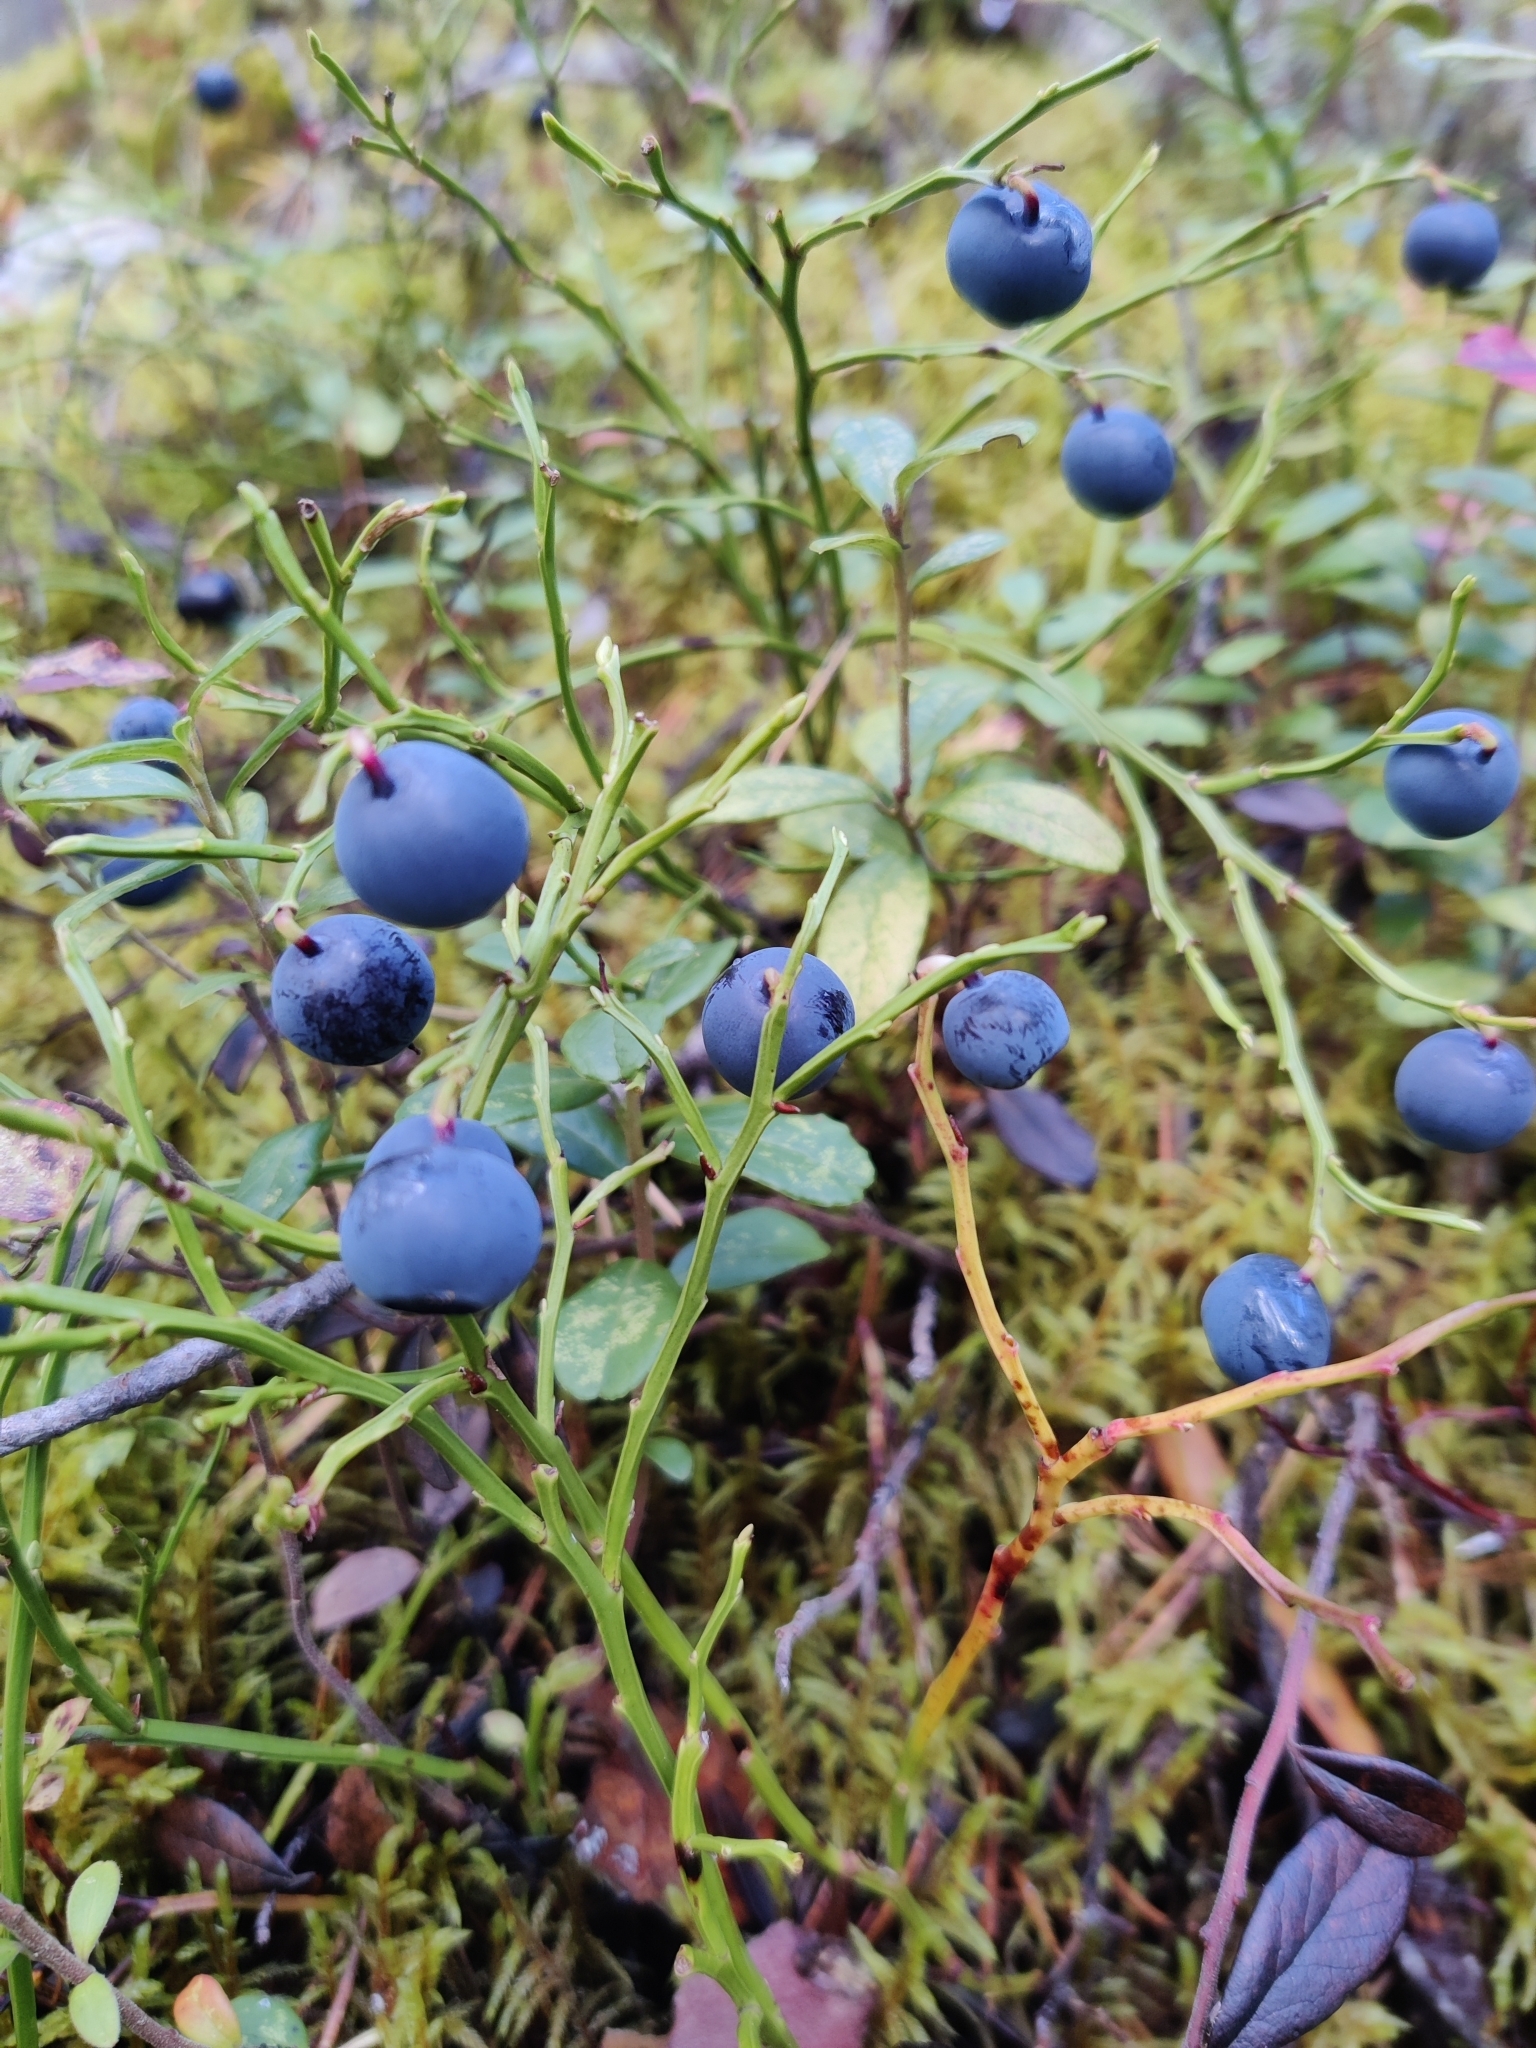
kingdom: Plantae
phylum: Tracheophyta
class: Magnoliopsida
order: Ericales
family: Ericaceae
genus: Vaccinium
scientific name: Vaccinium myrtillus
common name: Bilberry
